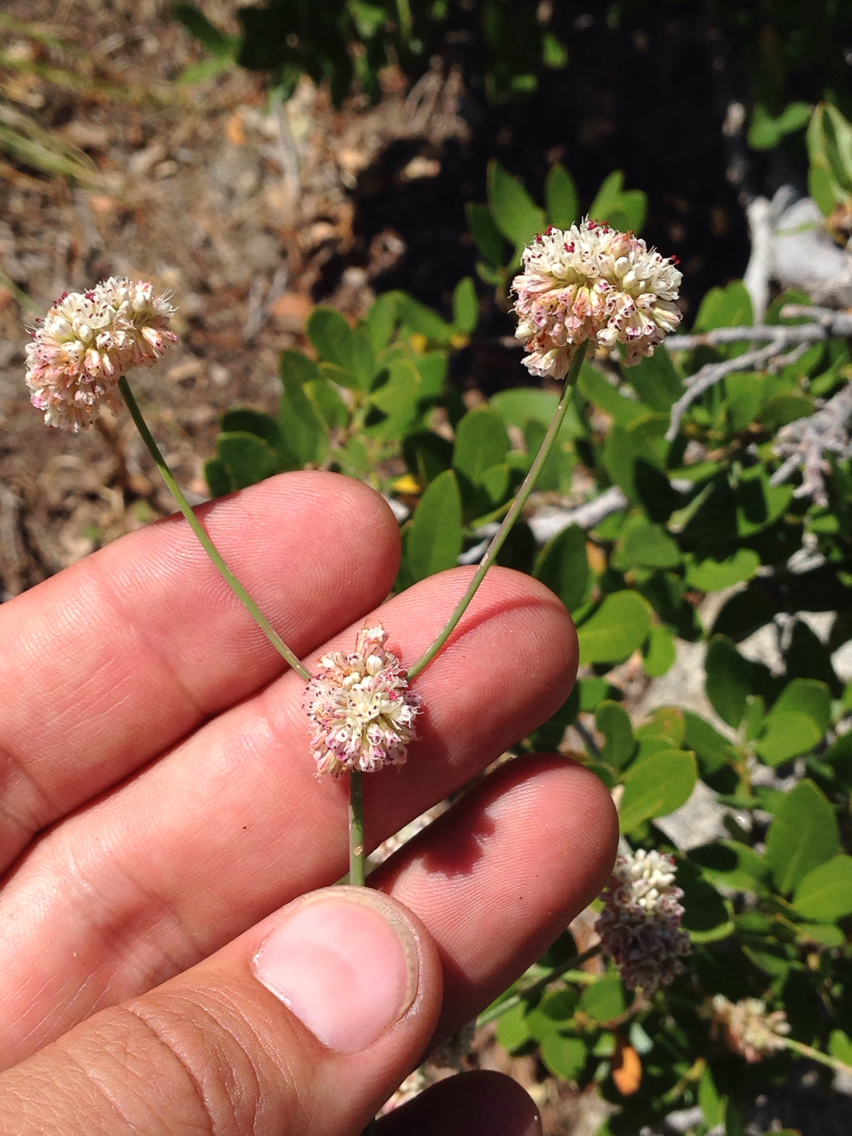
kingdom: Plantae
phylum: Tracheophyta
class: Magnoliopsida
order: Caryophyllales
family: Polygonaceae
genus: Eriogonum
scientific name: Eriogonum nudum
